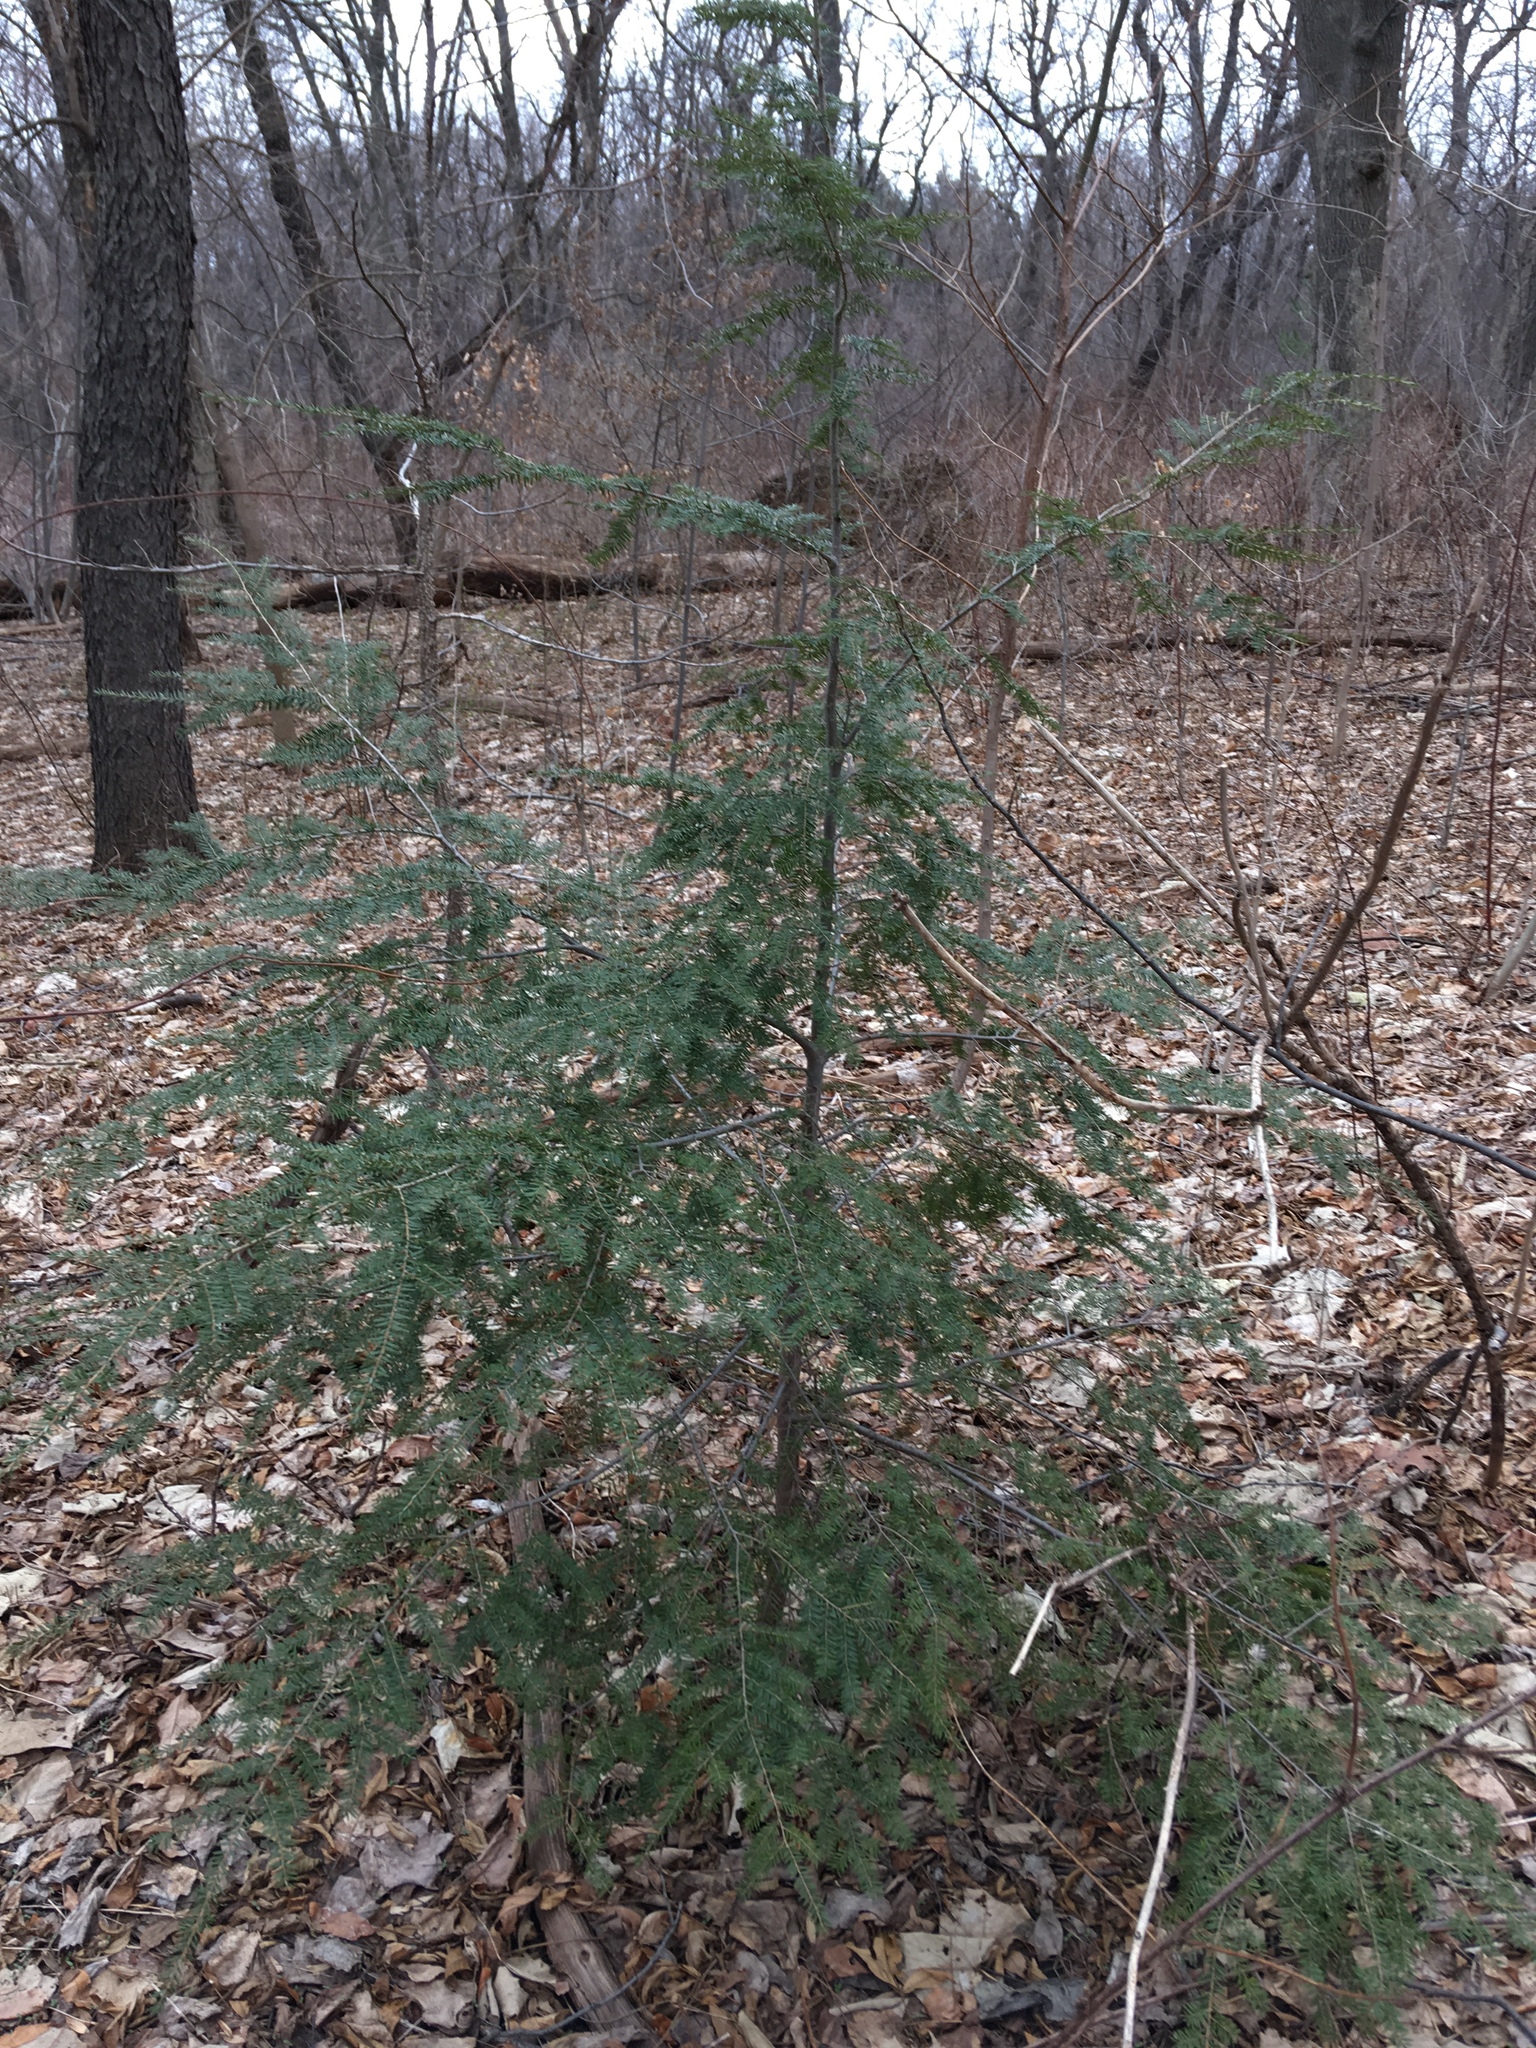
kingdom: Plantae
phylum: Tracheophyta
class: Pinopsida
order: Pinales
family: Pinaceae
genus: Tsuga
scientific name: Tsuga canadensis
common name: Eastern hemlock
